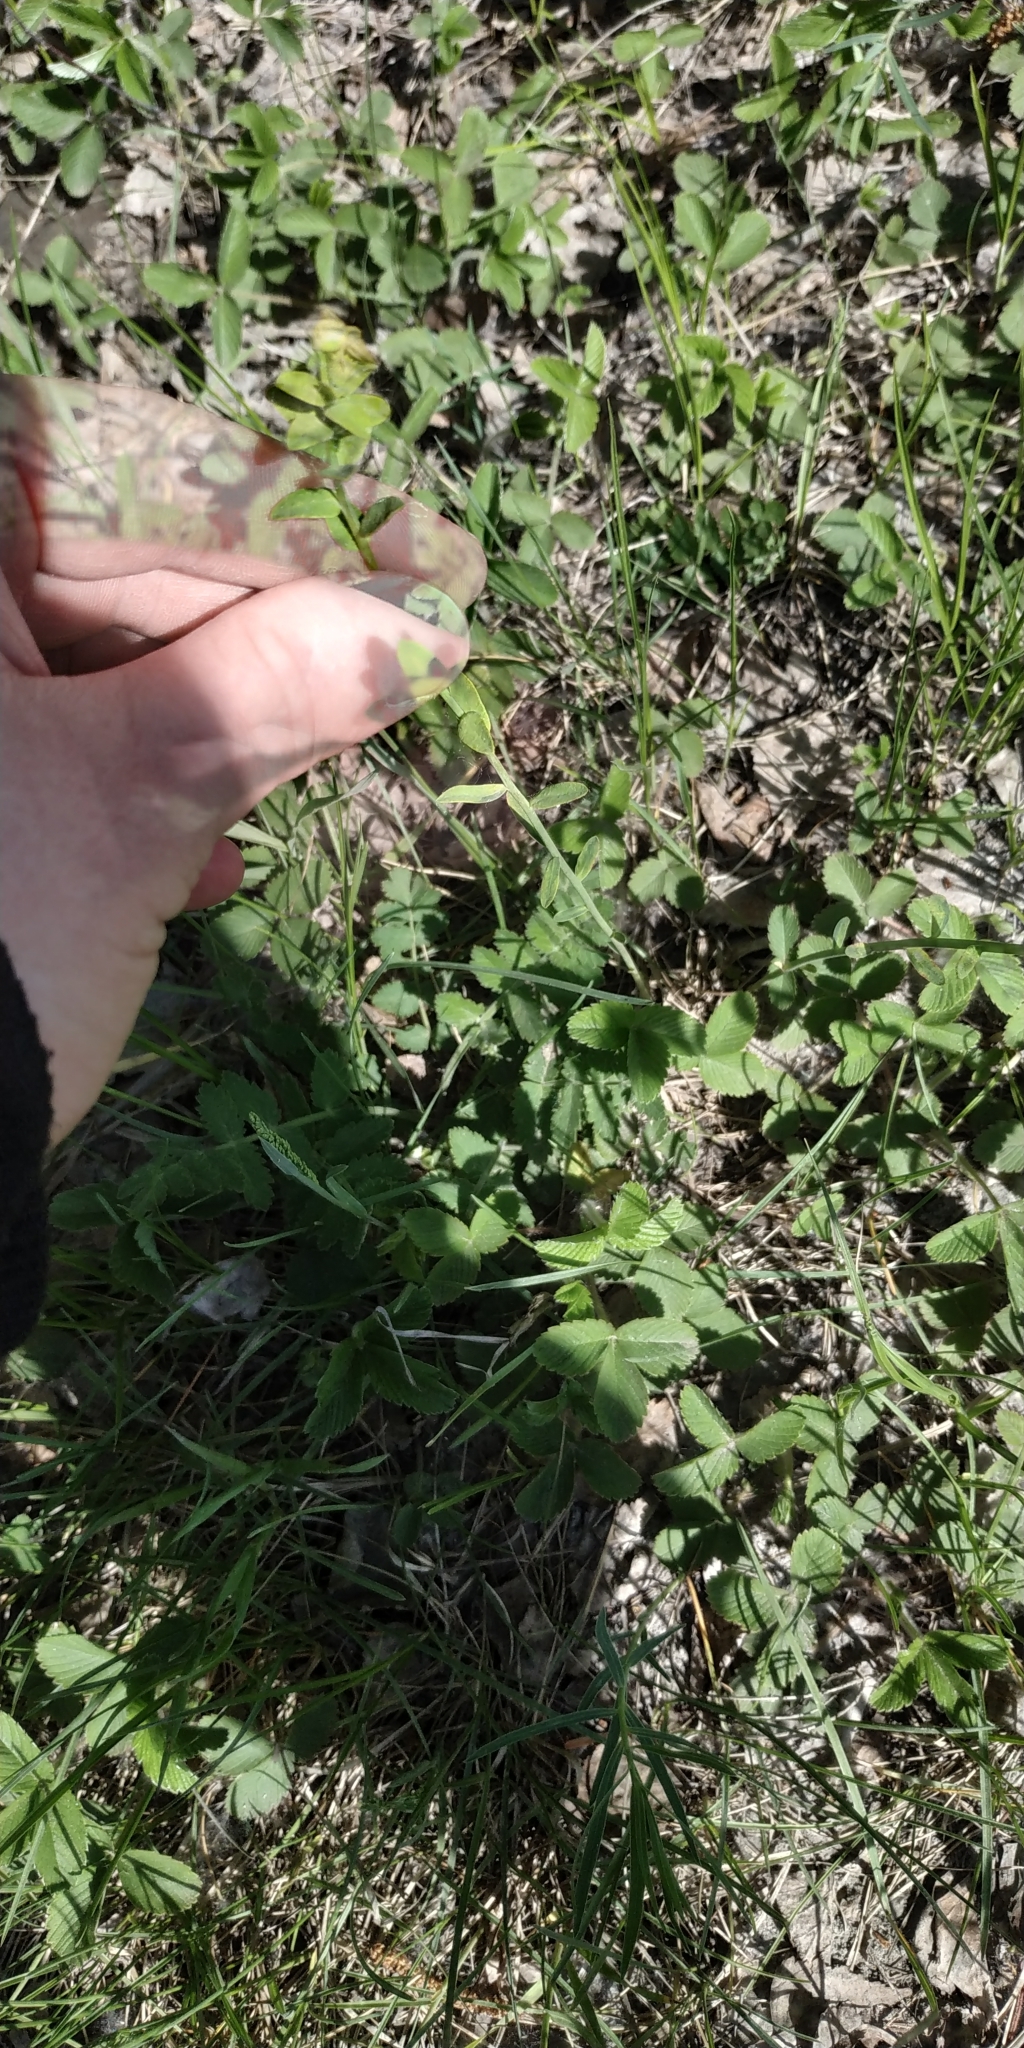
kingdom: Plantae
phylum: Tracheophyta
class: Magnoliopsida
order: Malpighiales
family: Euphorbiaceae
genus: Euphorbia
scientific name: Euphorbia virgata
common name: Leafy spurge
